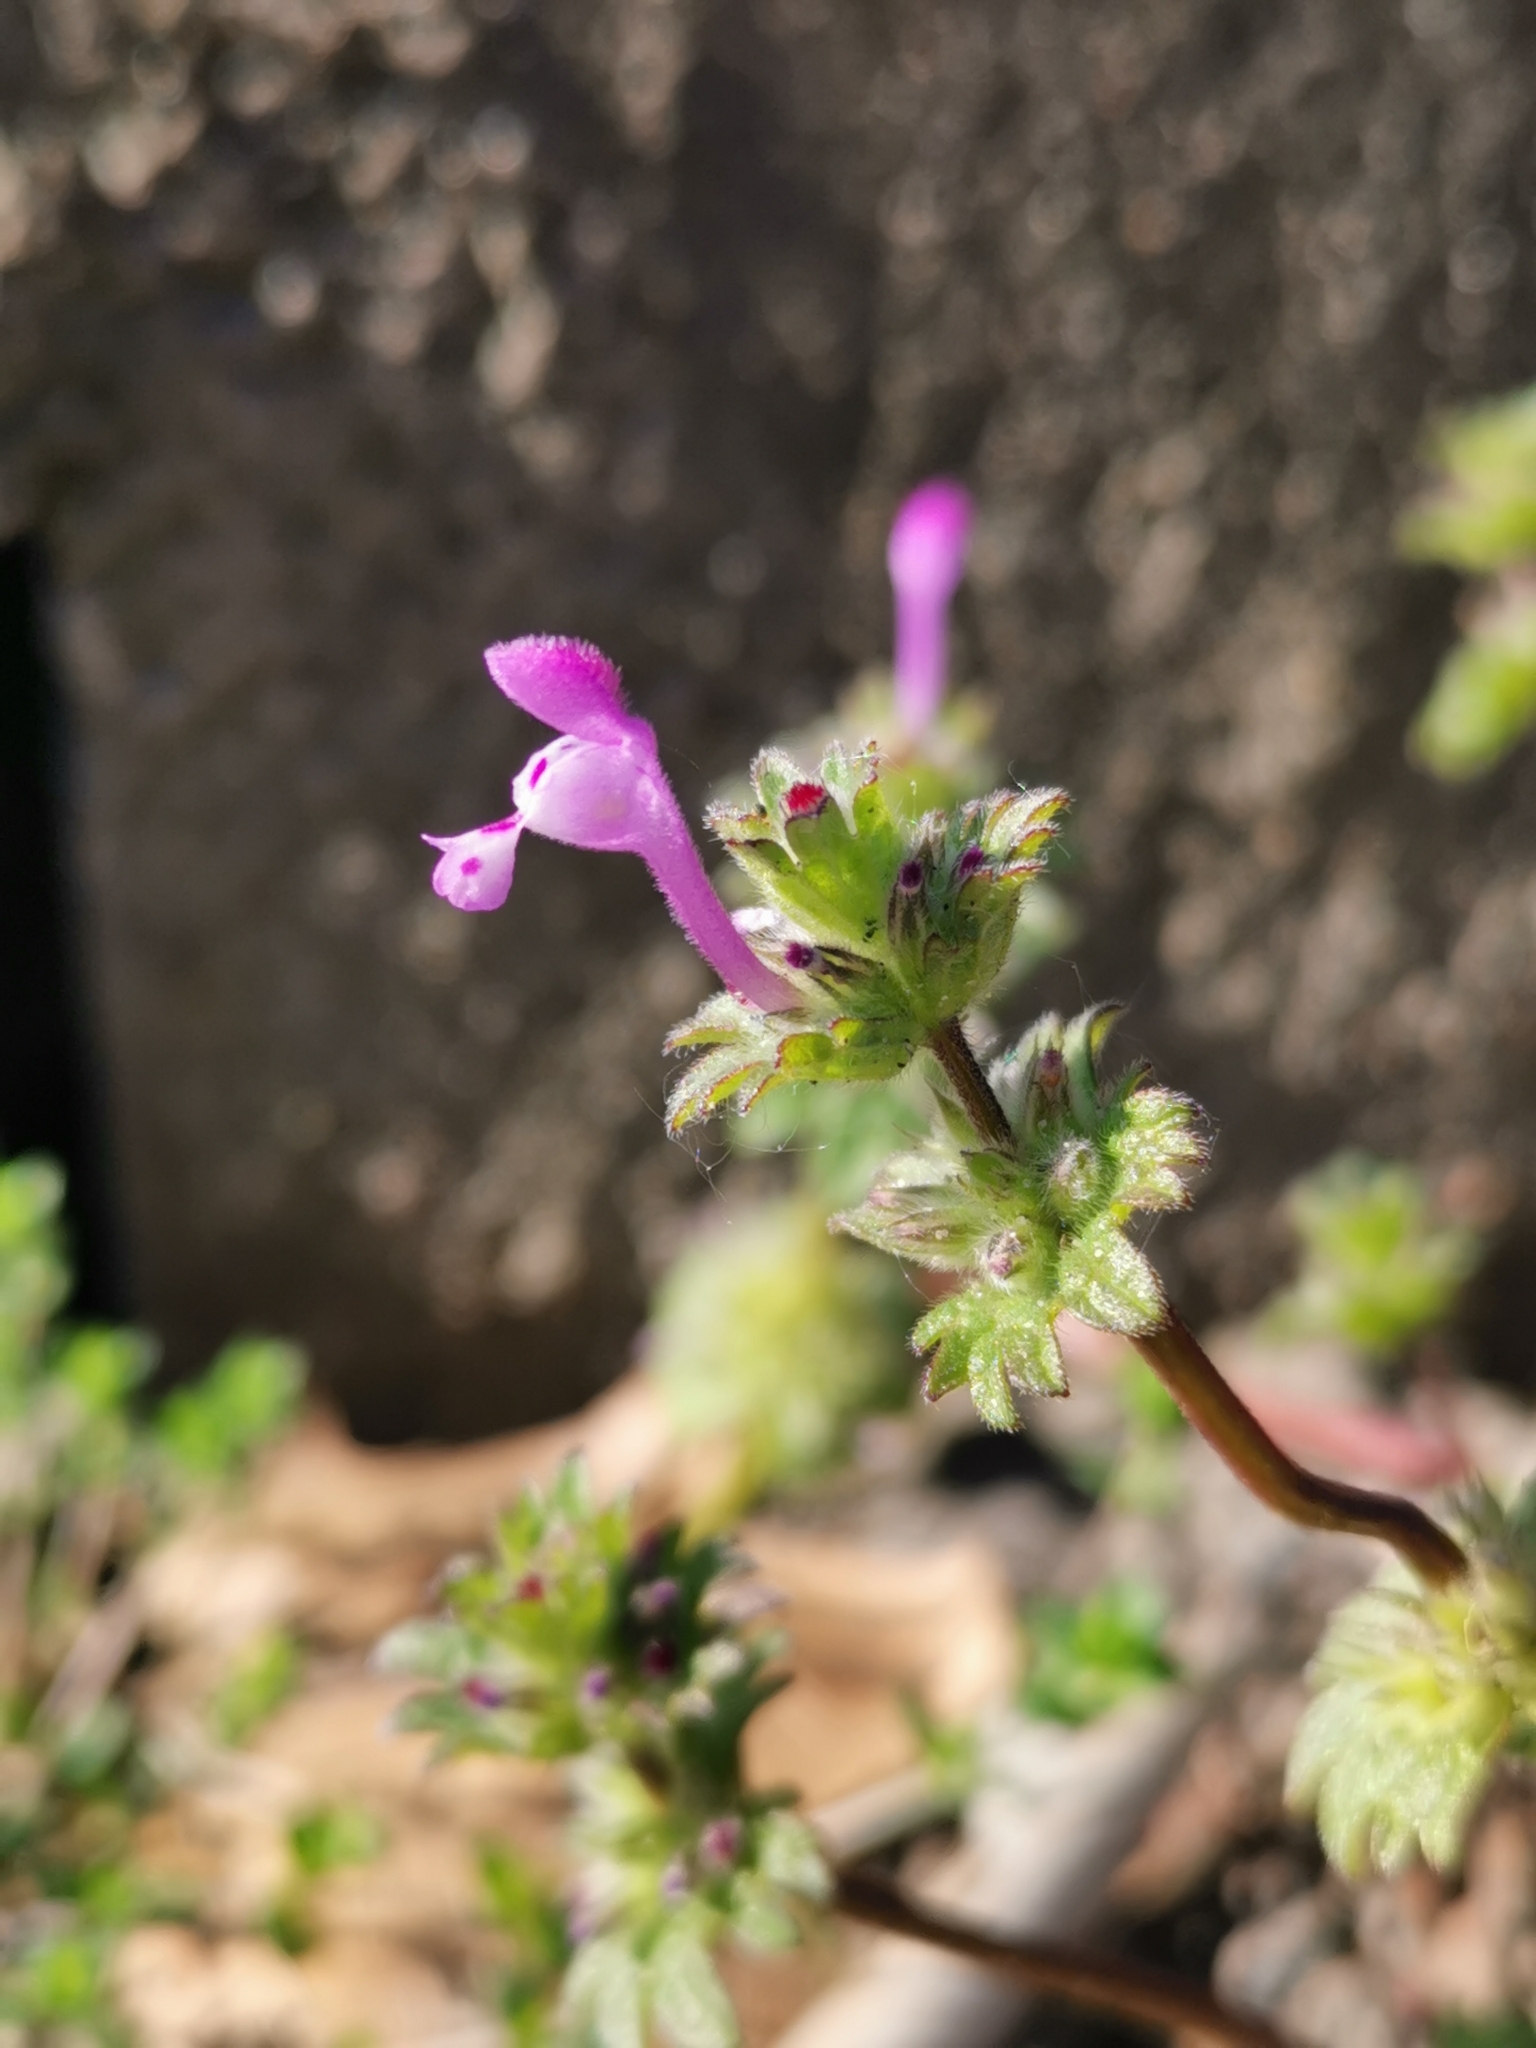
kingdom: Plantae
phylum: Tracheophyta
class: Magnoliopsida
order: Lamiales
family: Lamiaceae
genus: Lamium
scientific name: Lamium amplexicaule
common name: Henbit dead-nettle
